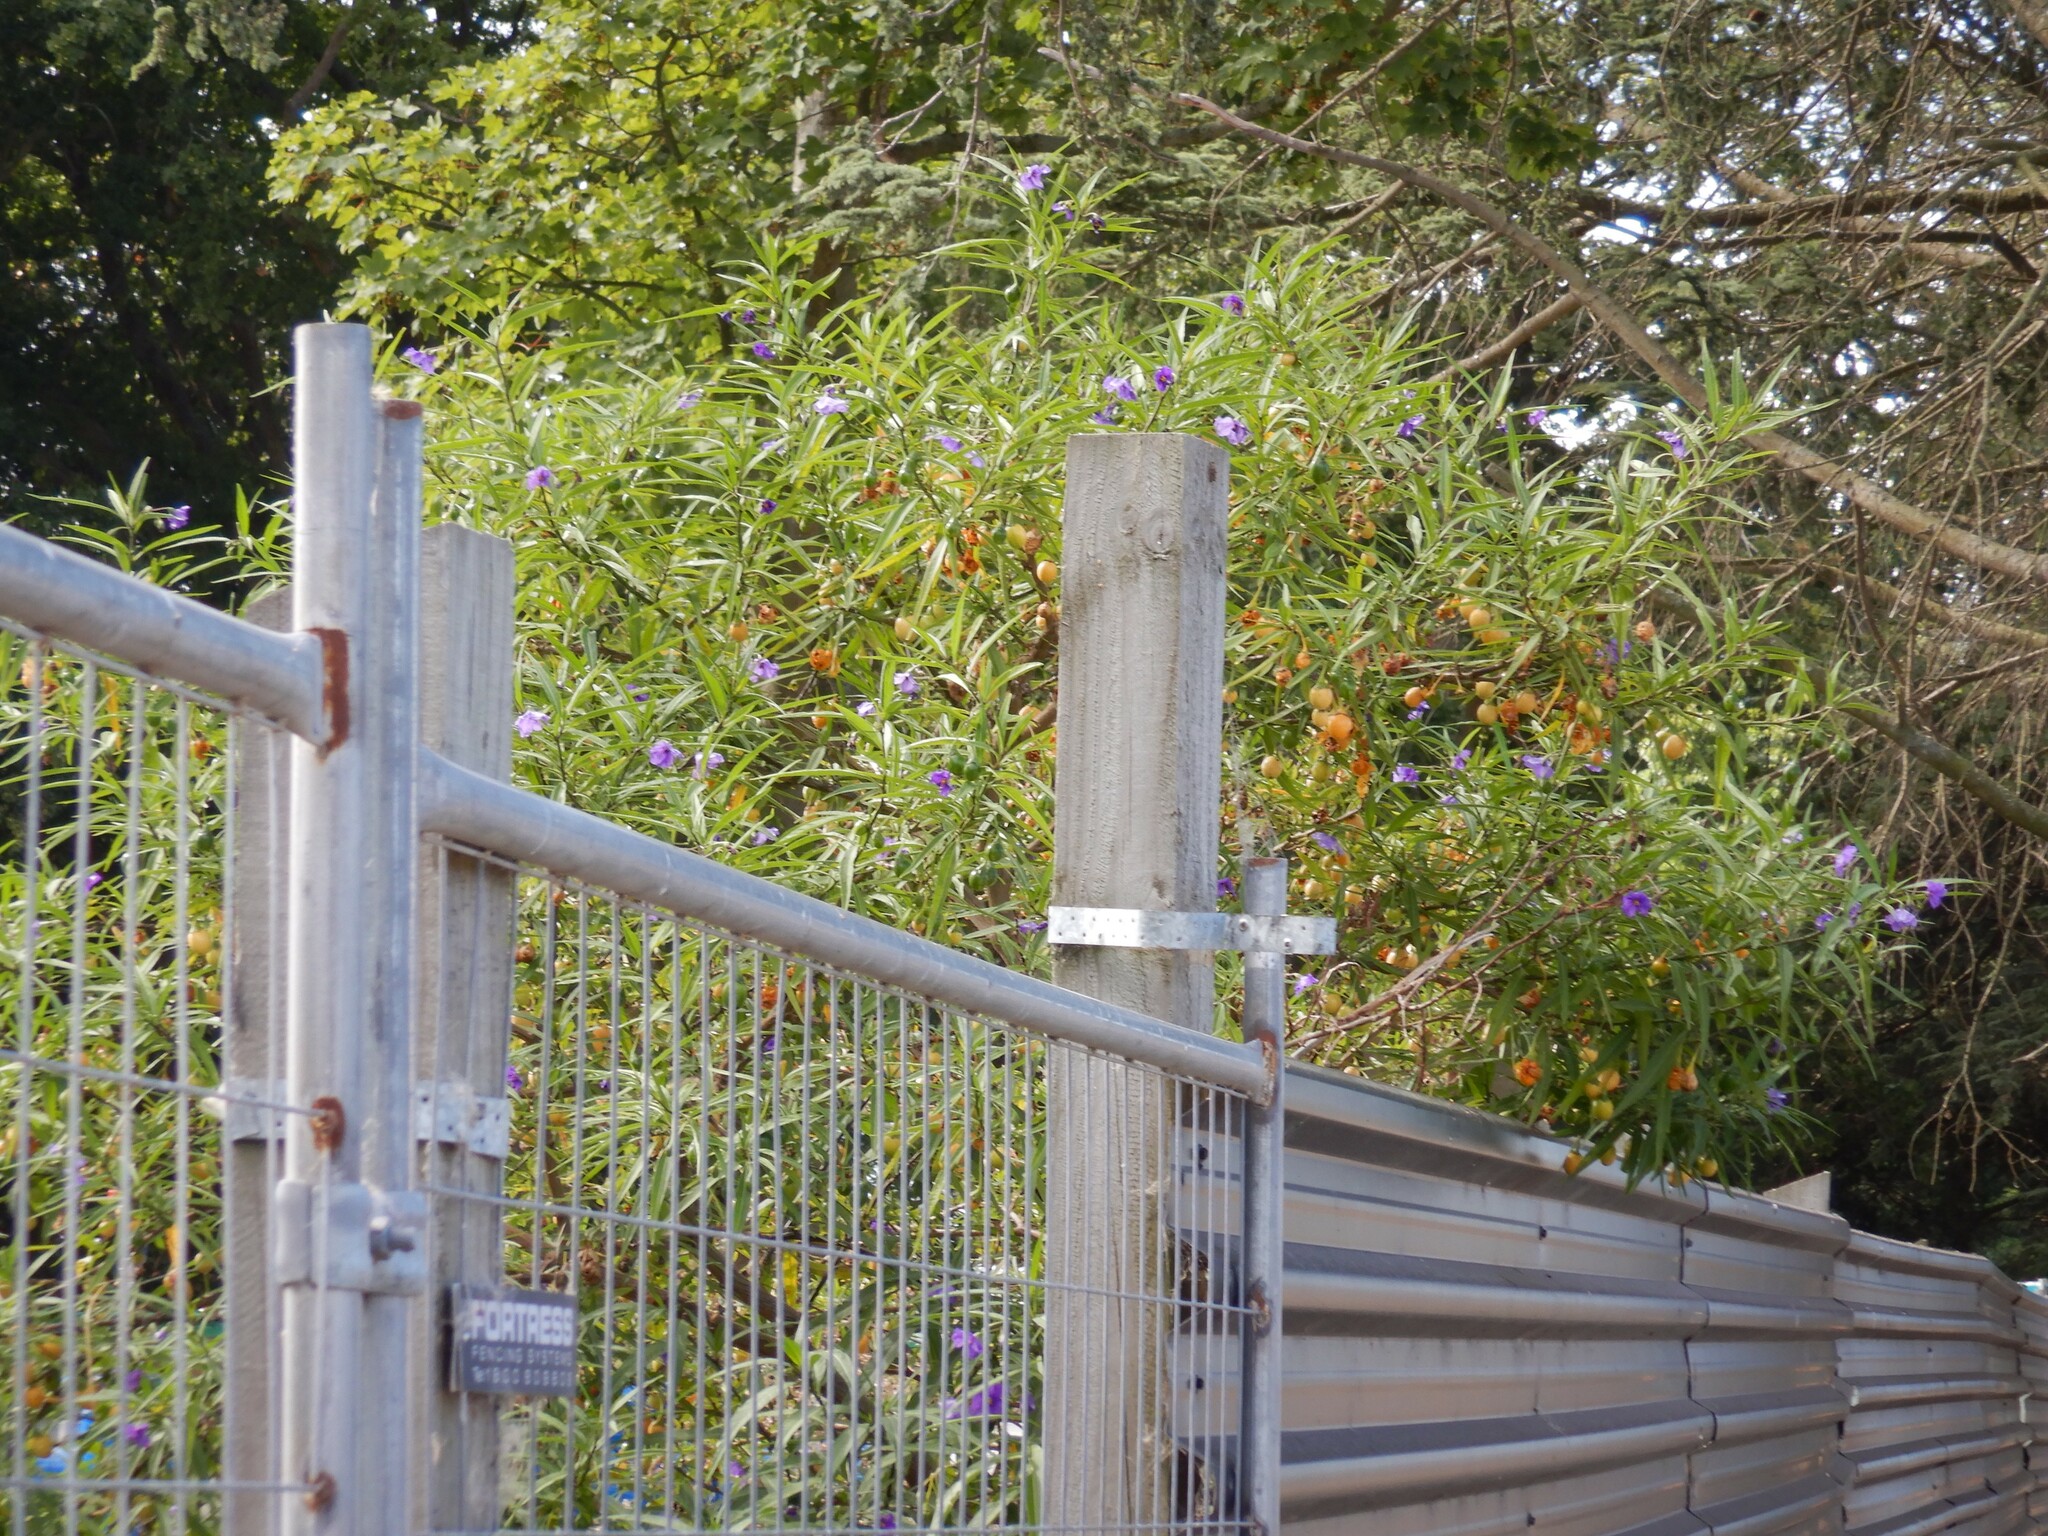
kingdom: Plantae
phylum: Tracheophyta
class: Magnoliopsida
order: Solanales
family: Solanaceae
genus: Solanum
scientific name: Solanum laciniatum
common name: Kangaroo-apple
